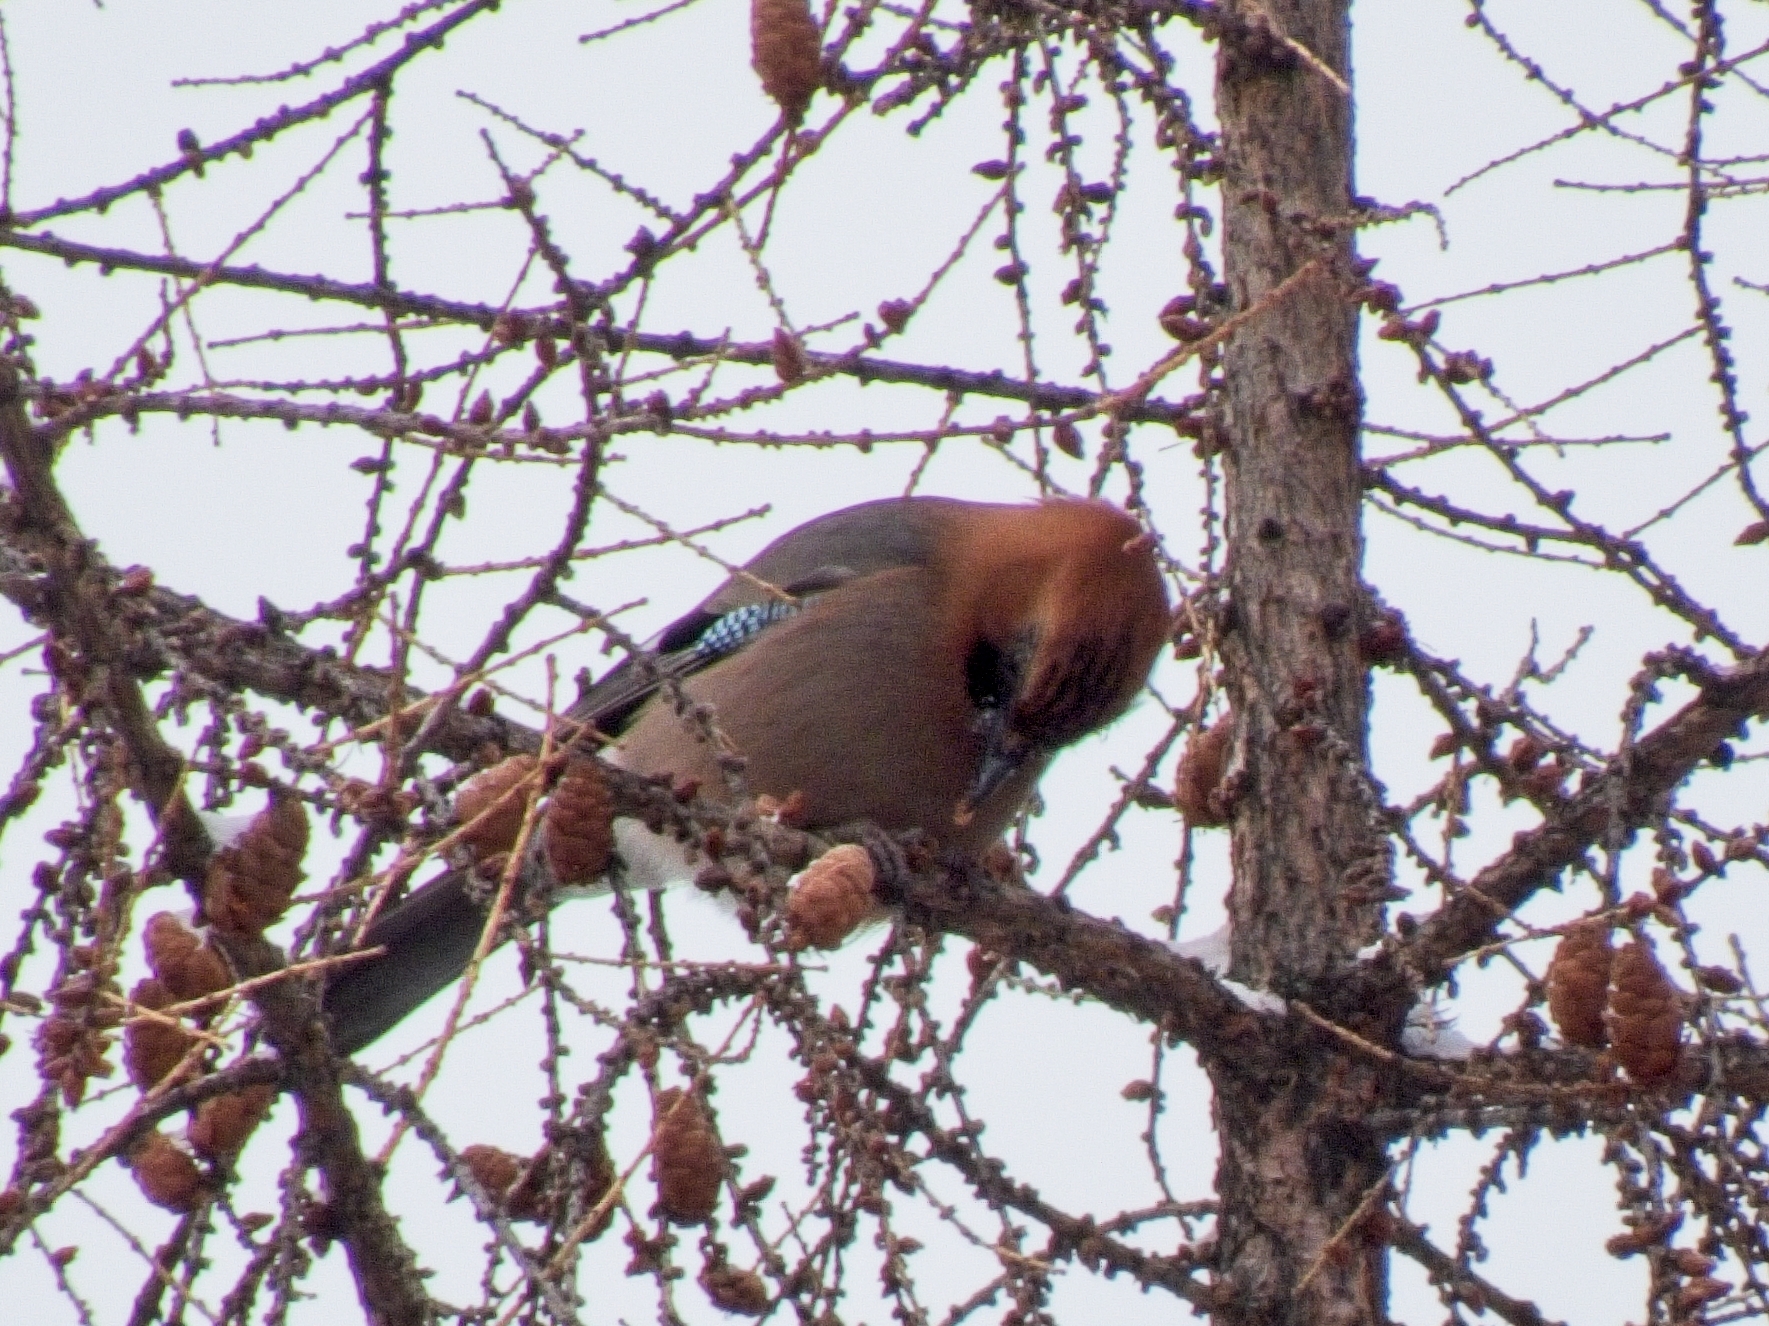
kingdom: Animalia
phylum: Chordata
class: Aves
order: Passeriformes
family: Corvidae
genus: Garrulus
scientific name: Garrulus glandarius
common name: Eurasian jay
